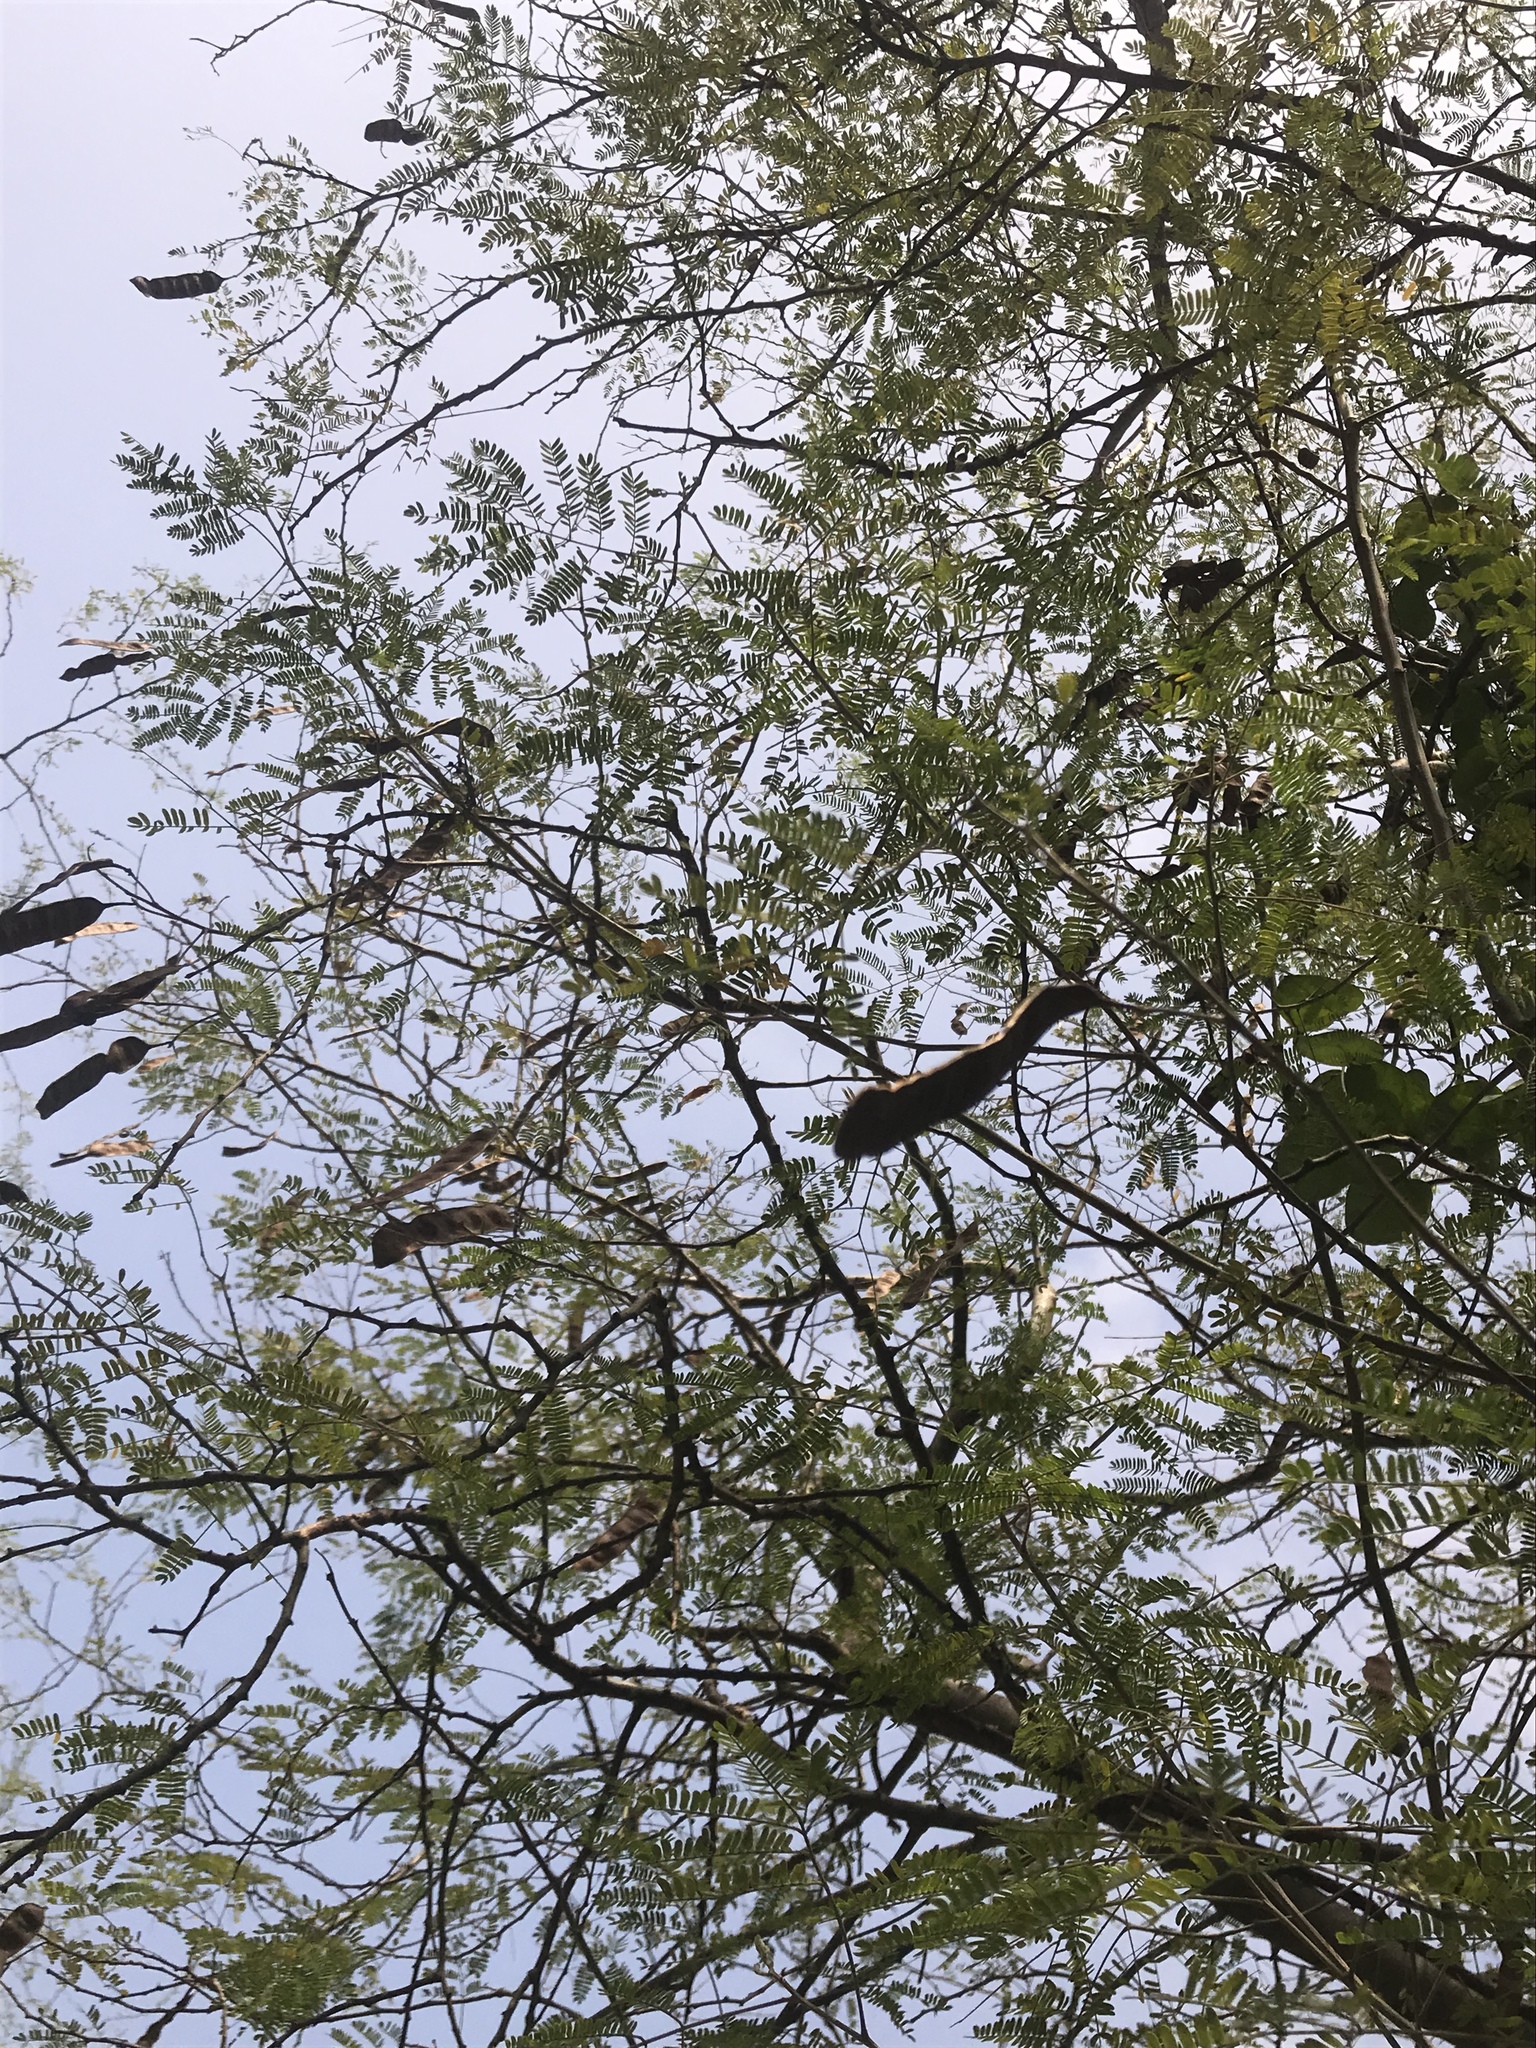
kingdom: Plantae
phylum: Tracheophyta
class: Magnoliopsida
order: Fabales
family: Fabaceae
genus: Havardia
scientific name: Havardia pallens
